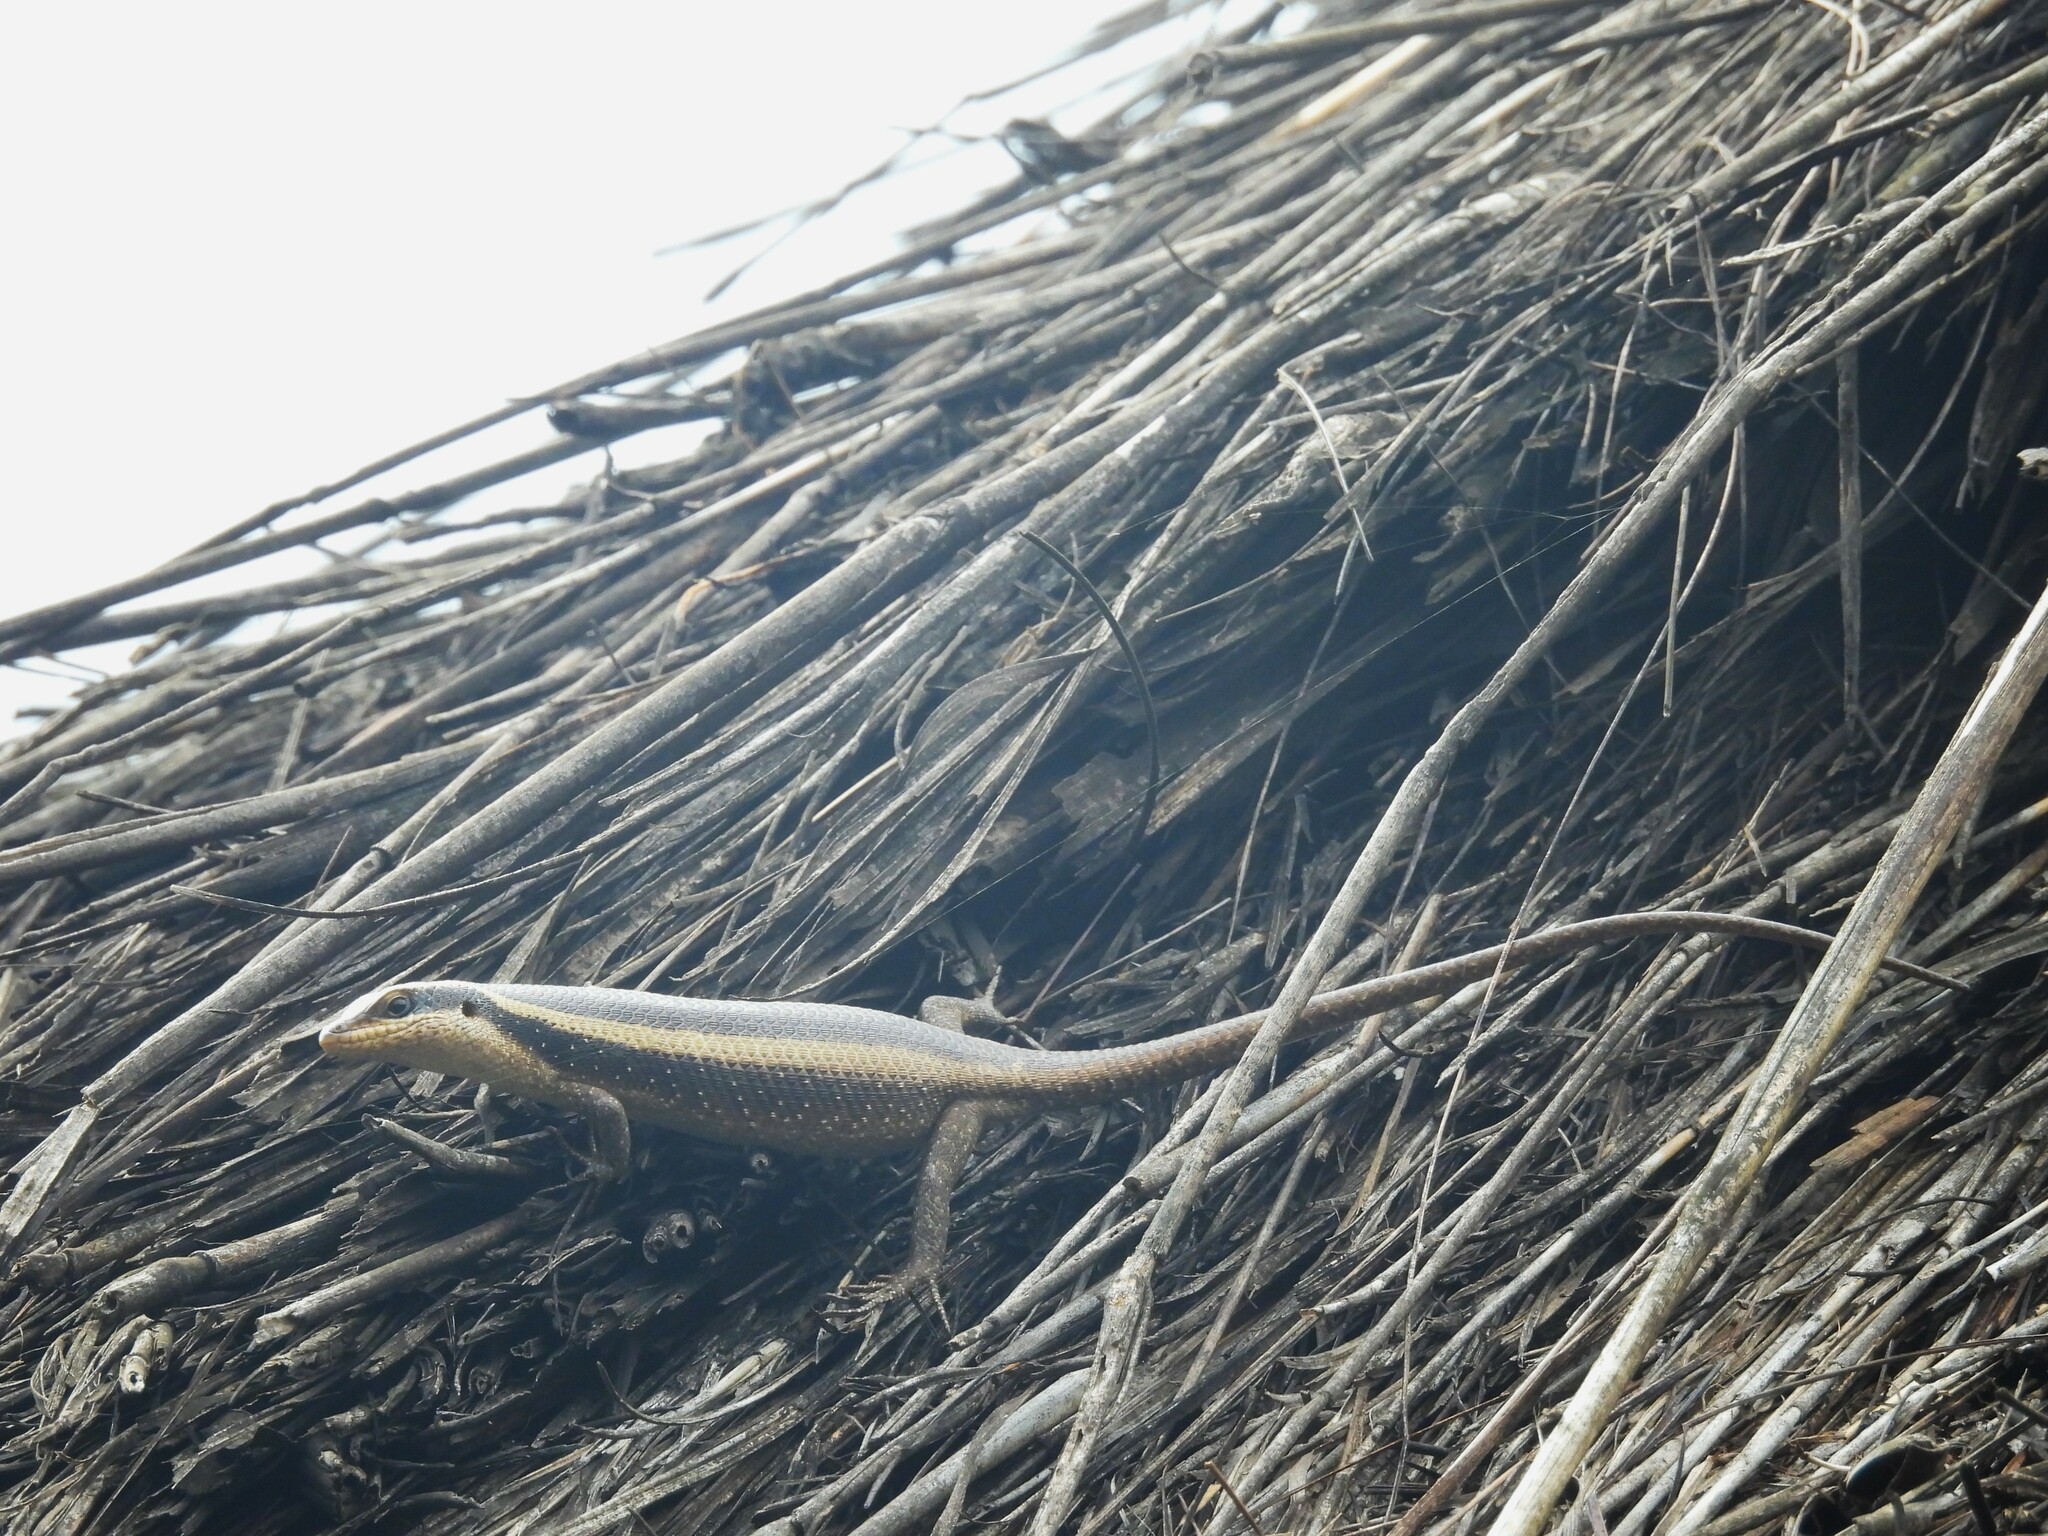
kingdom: Animalia
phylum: Chordata
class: Squamata
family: Scincidae
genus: Trachylepis
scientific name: Trachylepis striata
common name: African striped mabuya
